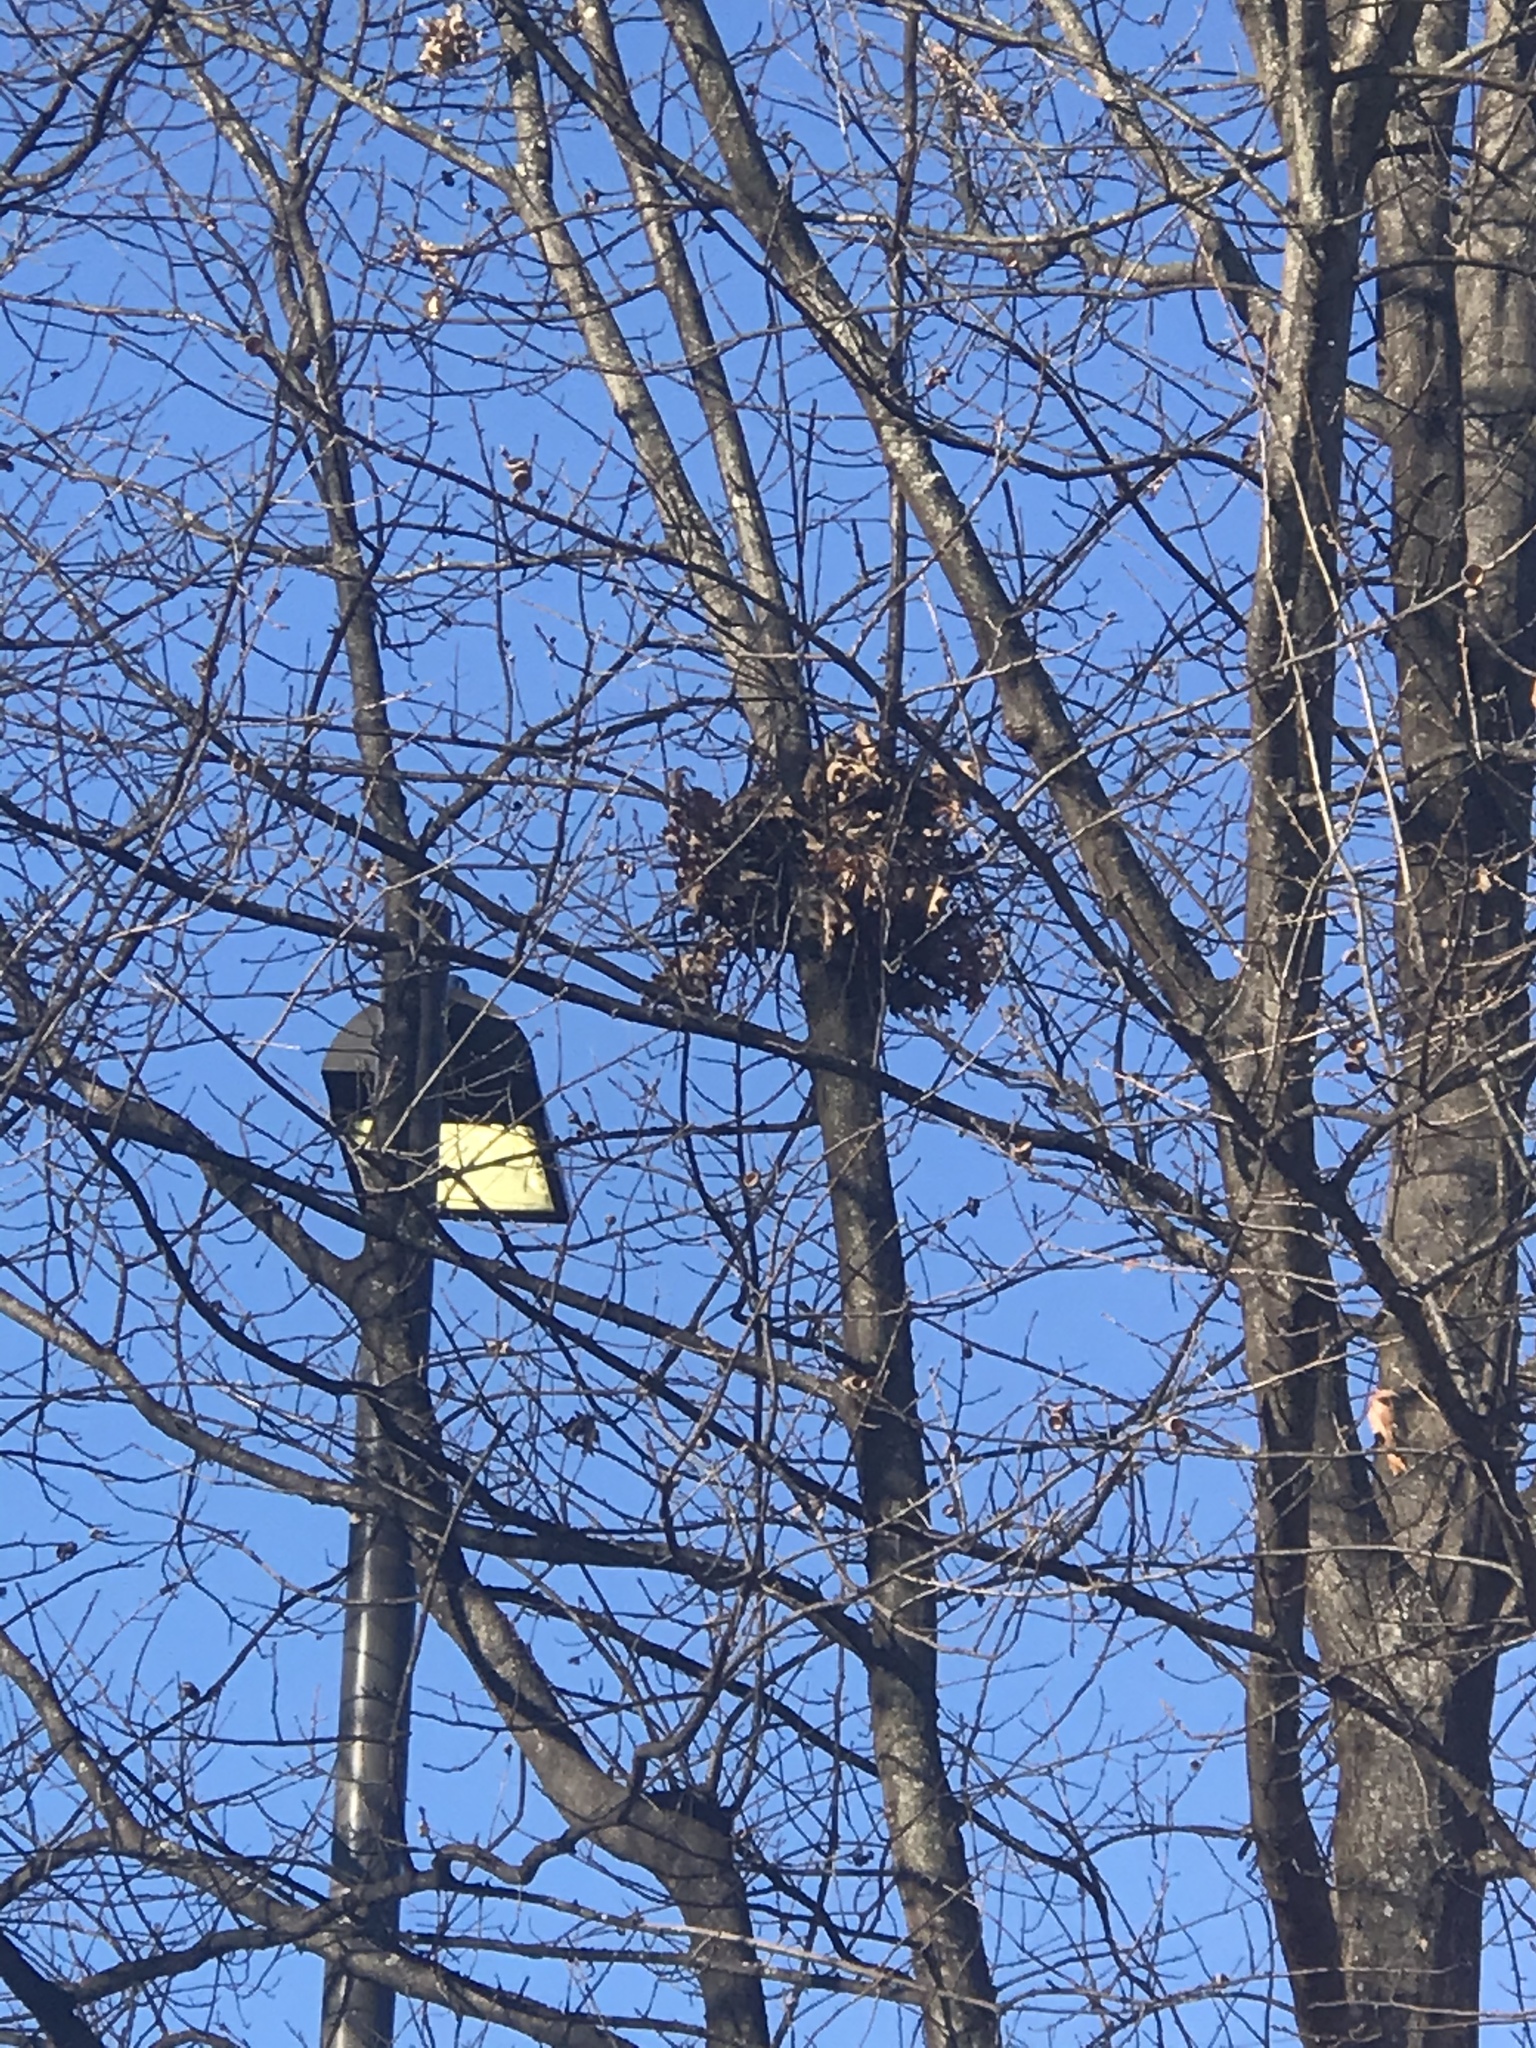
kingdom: Animalia
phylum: Chordata
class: Mammalia
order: Rodentia
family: Sciuridae
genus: Sciurus
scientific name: Sciurus carolinensis
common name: Eastern gray squirrel
